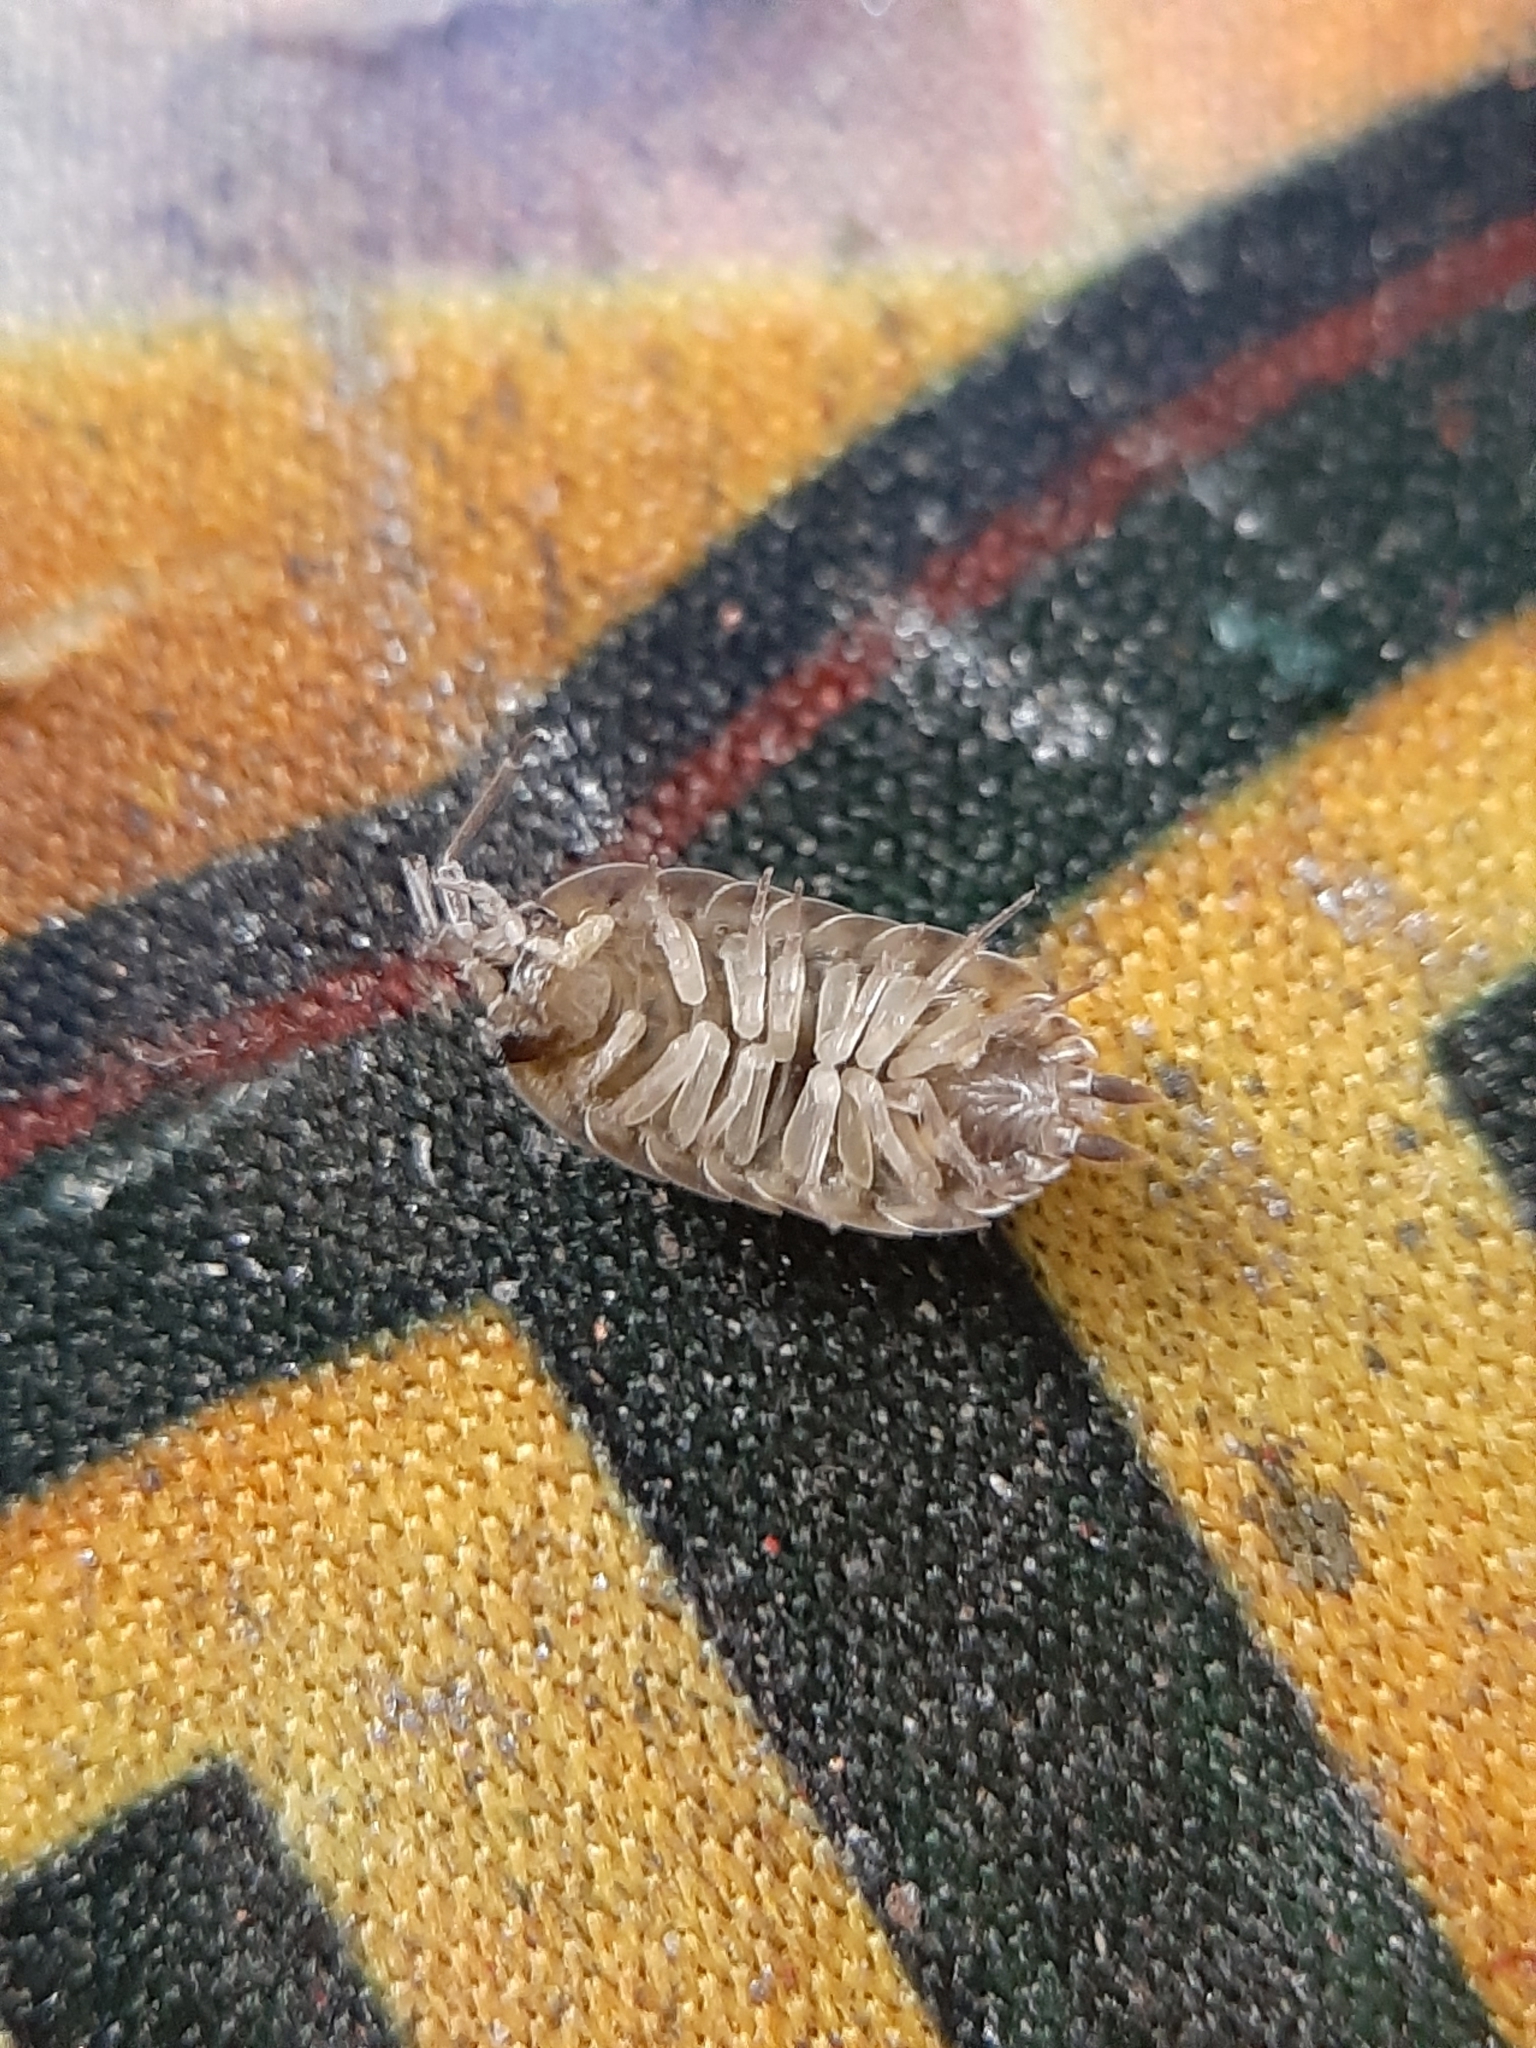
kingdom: Animalia
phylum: Arthropoda
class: Malacostraca
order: Isopoda
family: Porcellionidae
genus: Porcellio
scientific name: Porcellio spinicornis
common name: Painted woodlouse
